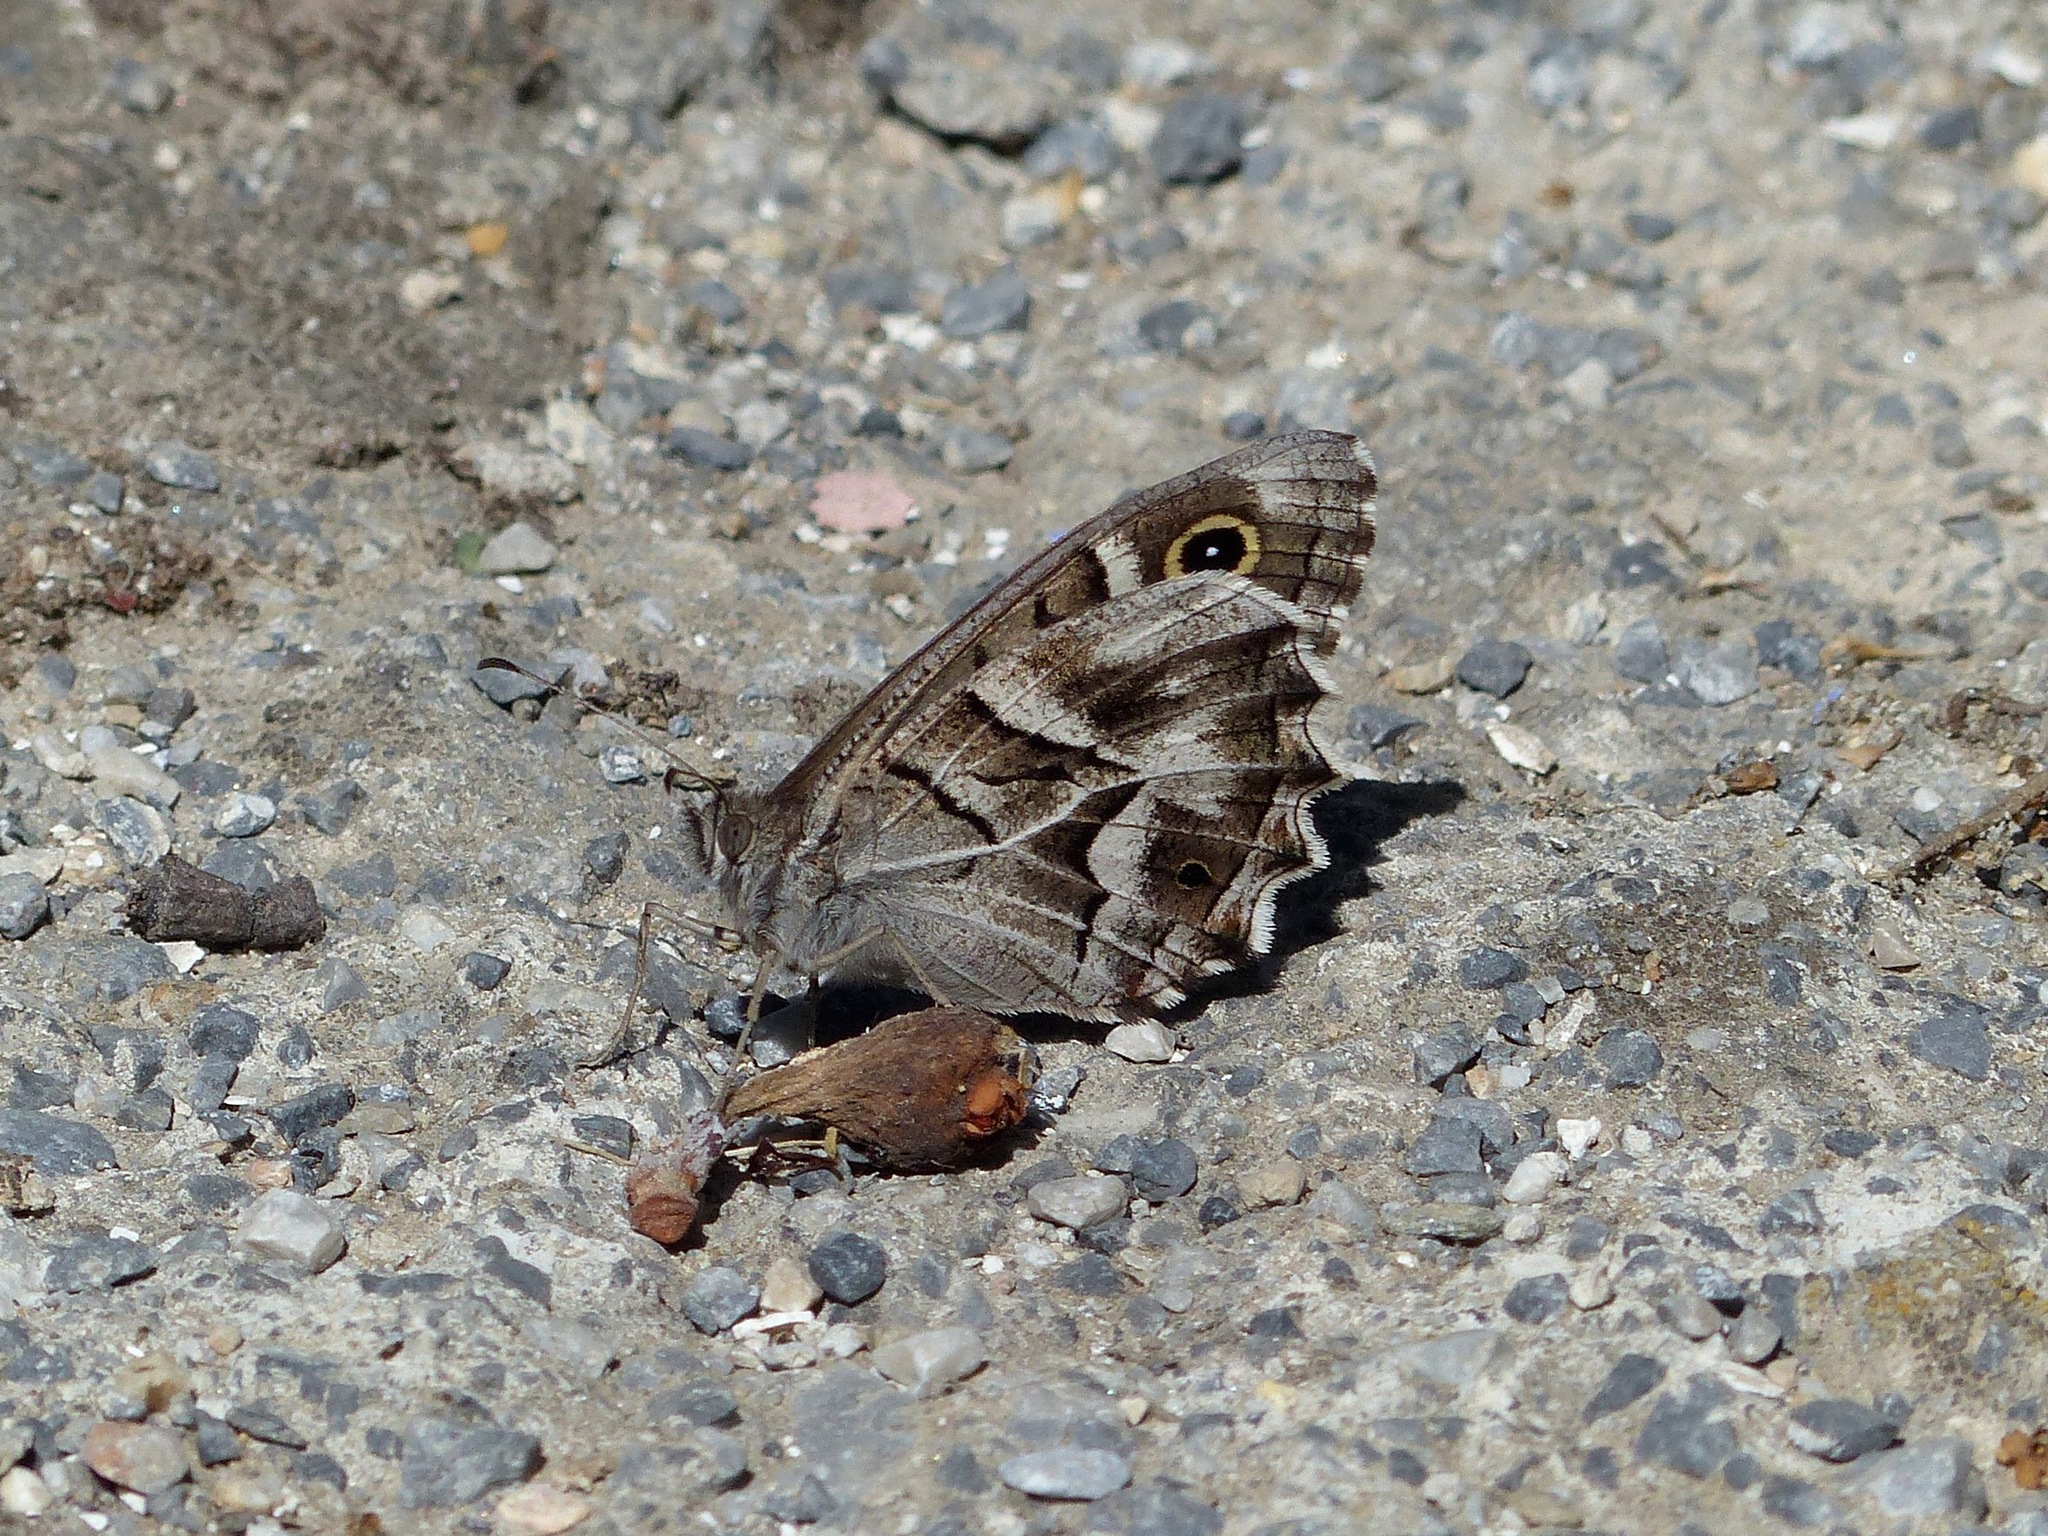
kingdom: Animalia
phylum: Arthropoda
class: Insecta
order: Lepidoptera
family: Nymphalidae
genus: Hipparchia
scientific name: Hipparchia fidia
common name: Striped grayling
